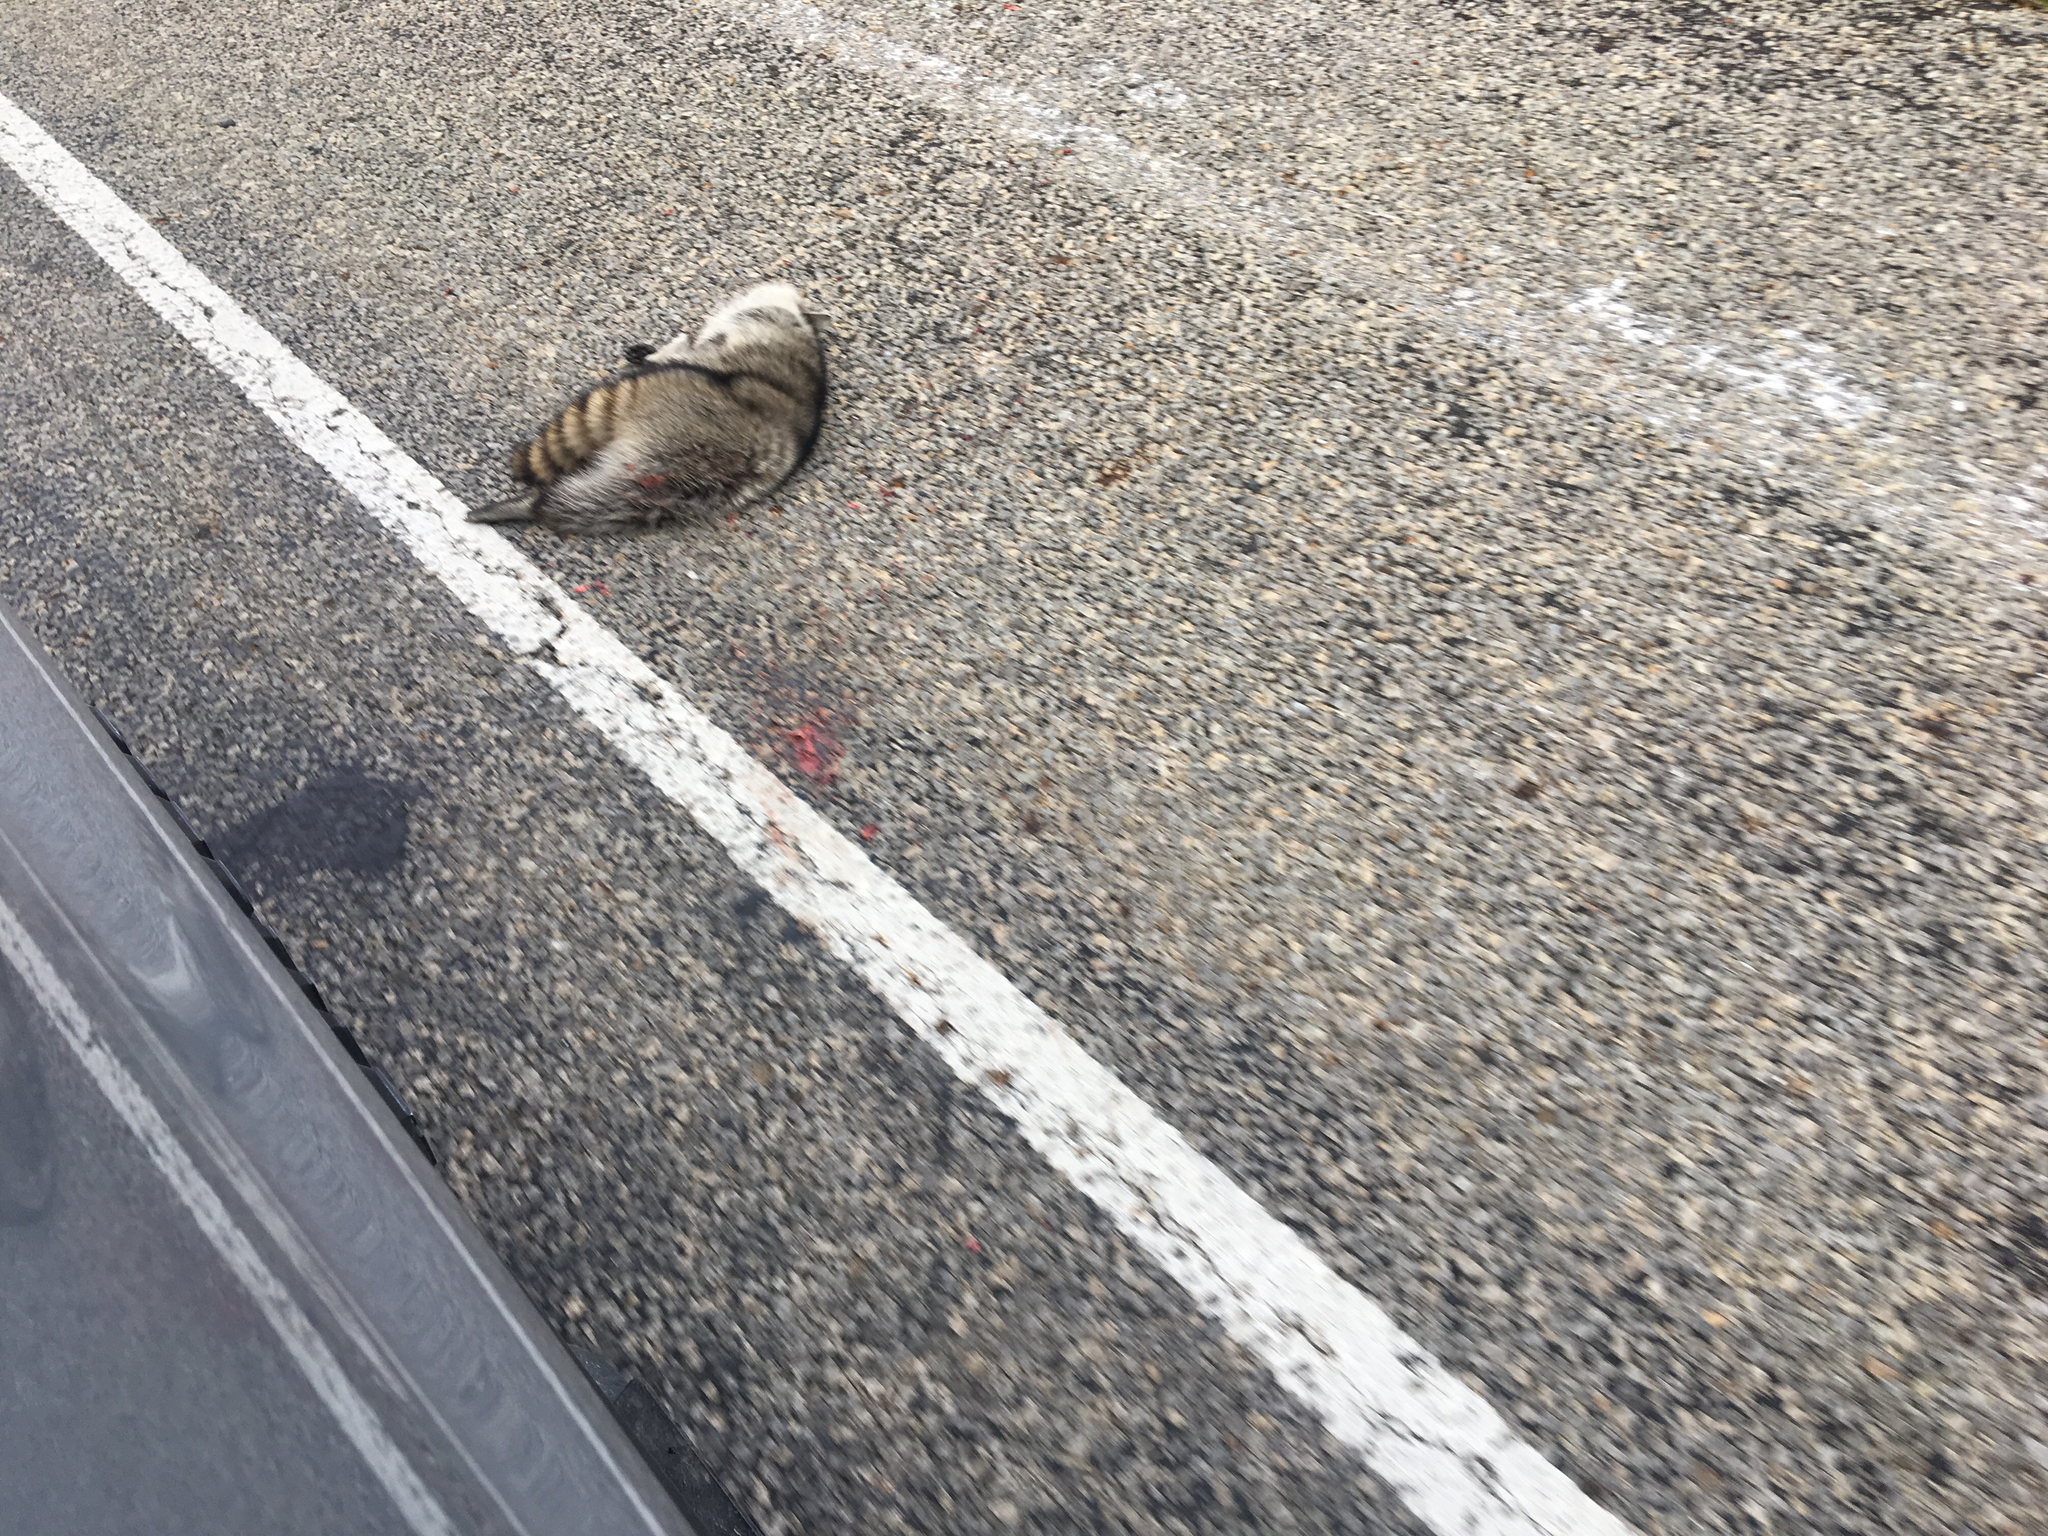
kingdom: Animalia
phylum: Chordata
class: Mammalia
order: Carnivora
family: Procyonidae
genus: Procyon
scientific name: Procyon lotor
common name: Raccoon
